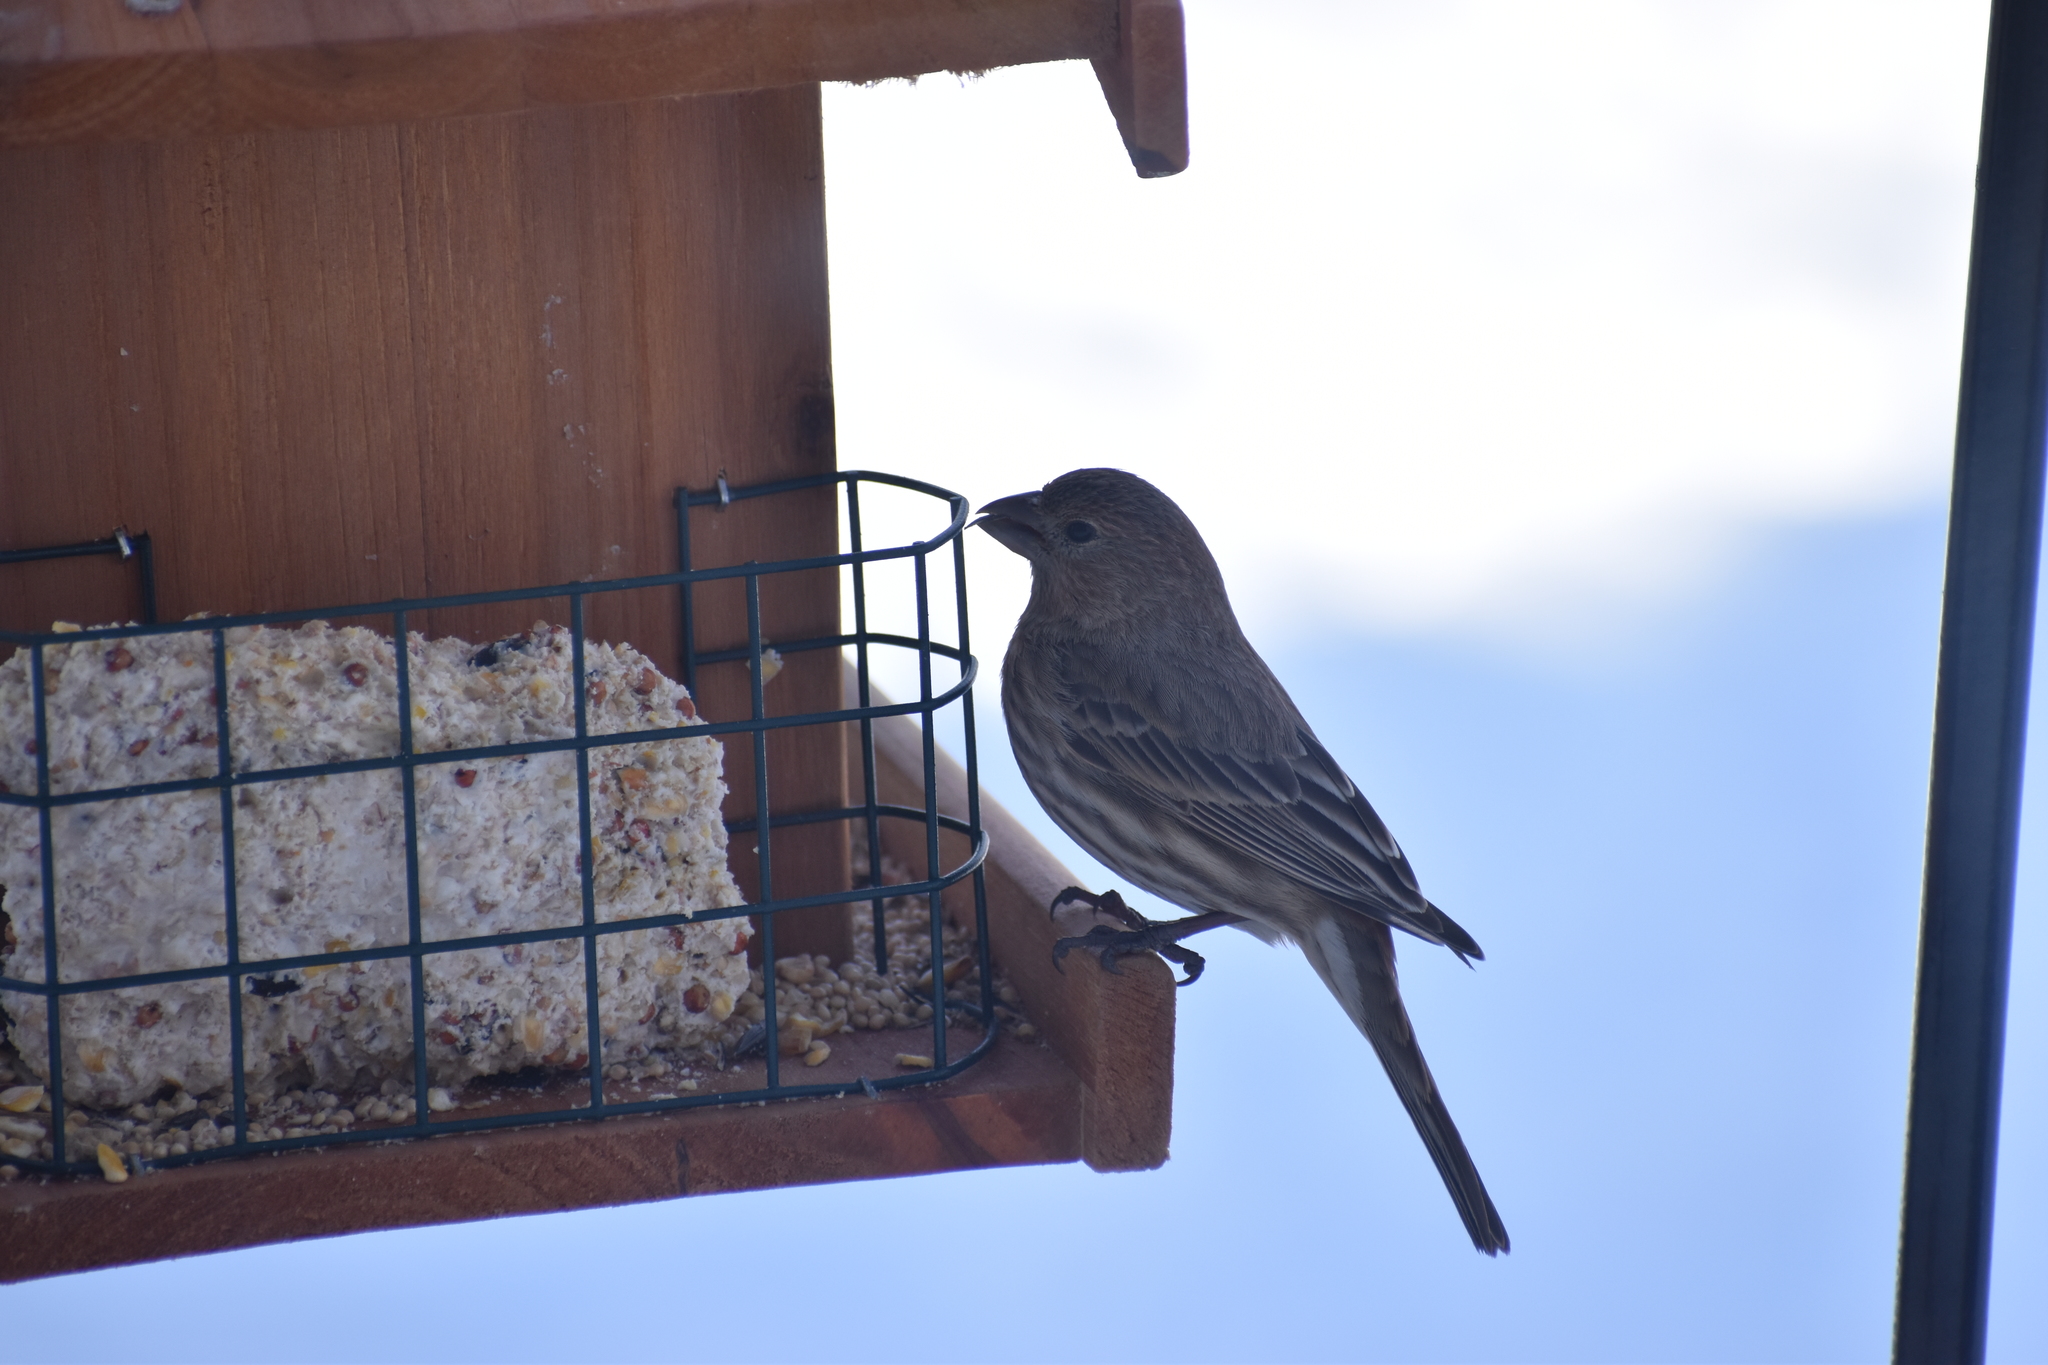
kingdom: Animalia
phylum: Chordata
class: Aves
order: Passeriformes
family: Fringillidae
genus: Haemorhous
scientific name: Haemorhous mexicanus
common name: House finch
